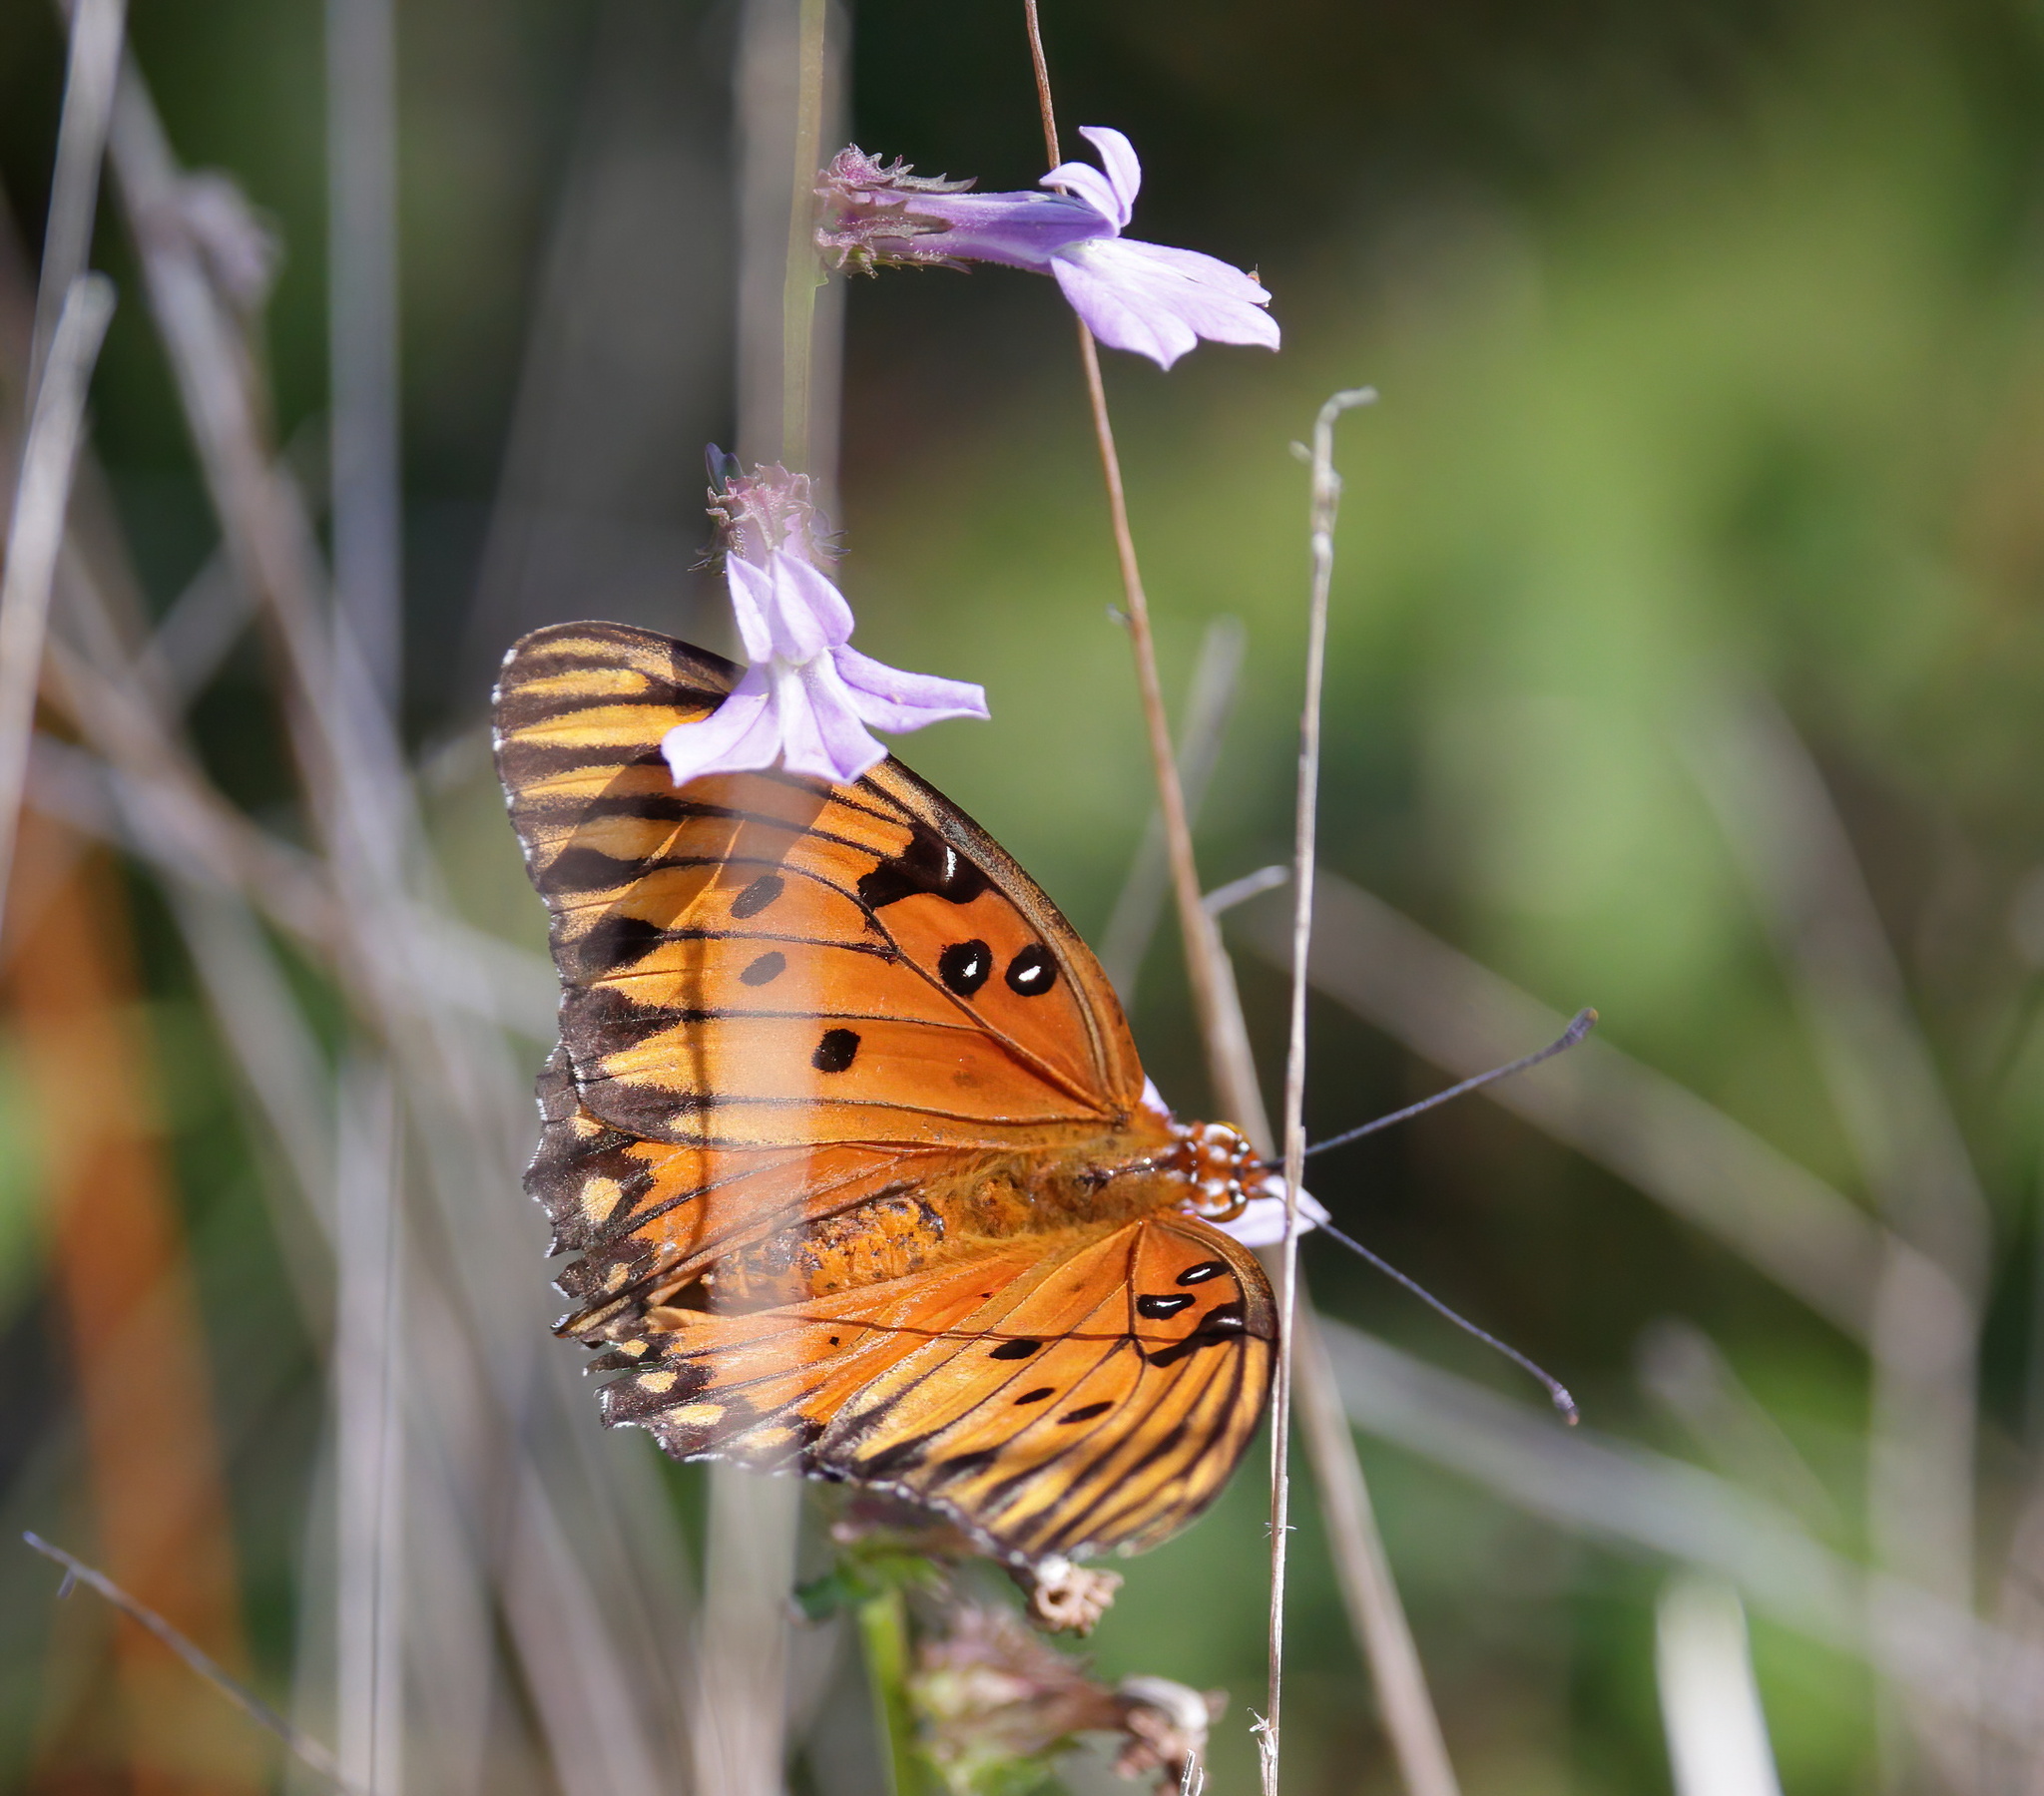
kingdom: Animalia
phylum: Arthropoda
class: Insecta
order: Lepidoptera
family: Nymphalidae
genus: Dione
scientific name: Dione vanillae
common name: Gulf fritillary
